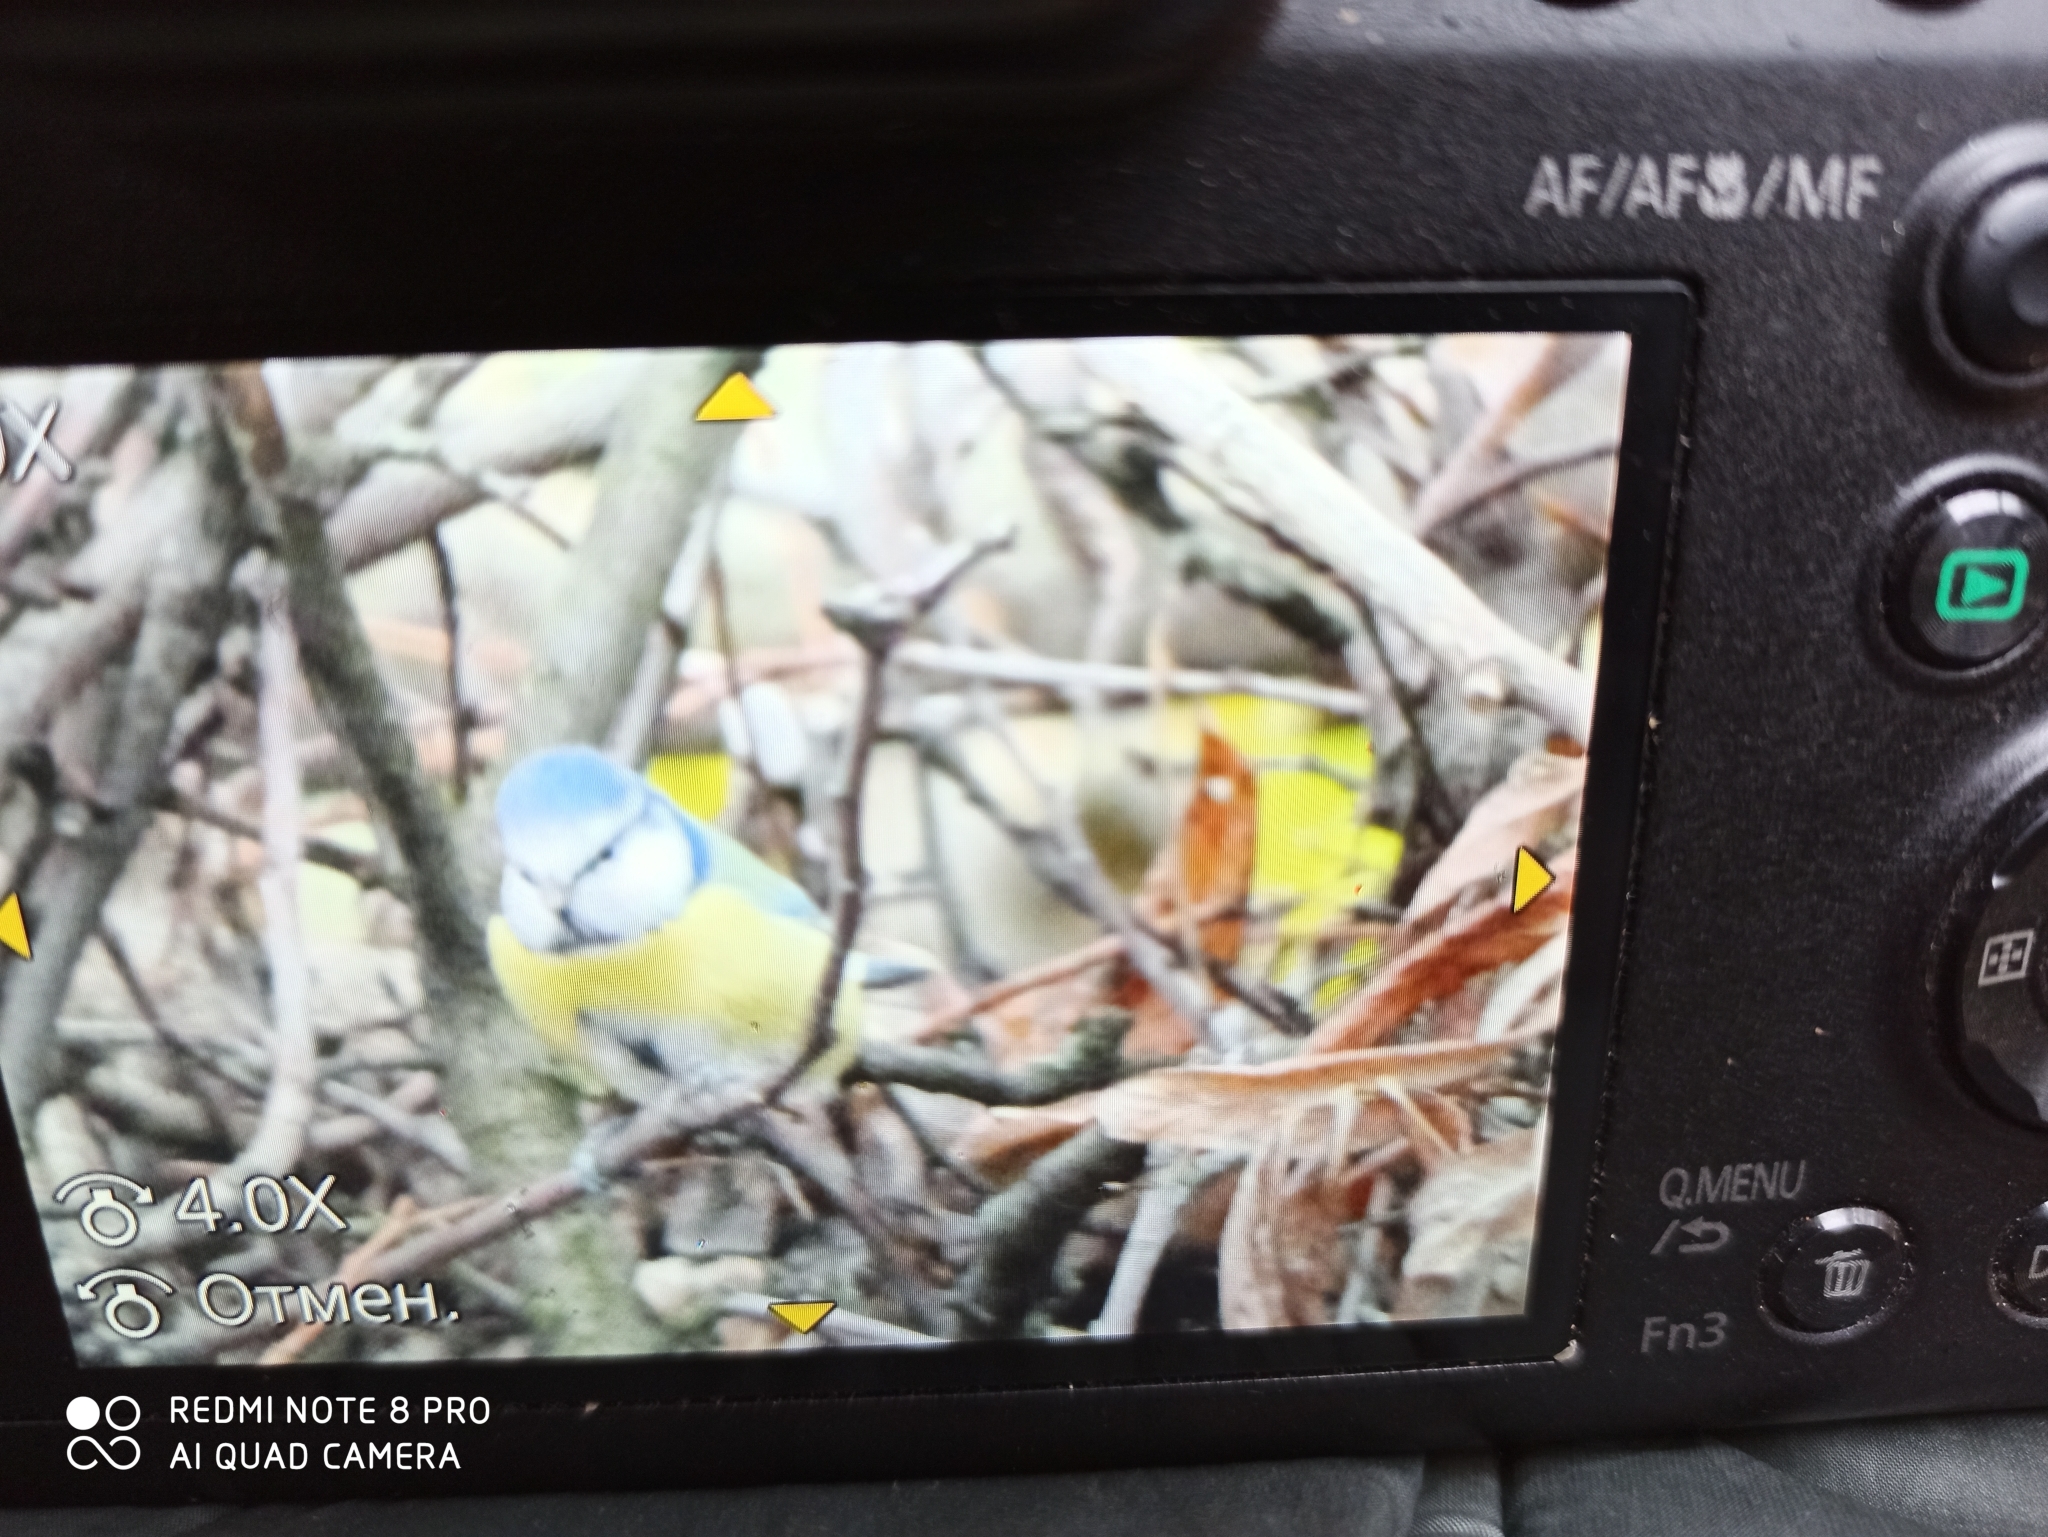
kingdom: Animalia
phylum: Chordata
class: Aves
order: Passeriformes
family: Paridae
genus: Cyanistes
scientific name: Cyanistes caeruleus
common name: Eurasian blue tit
